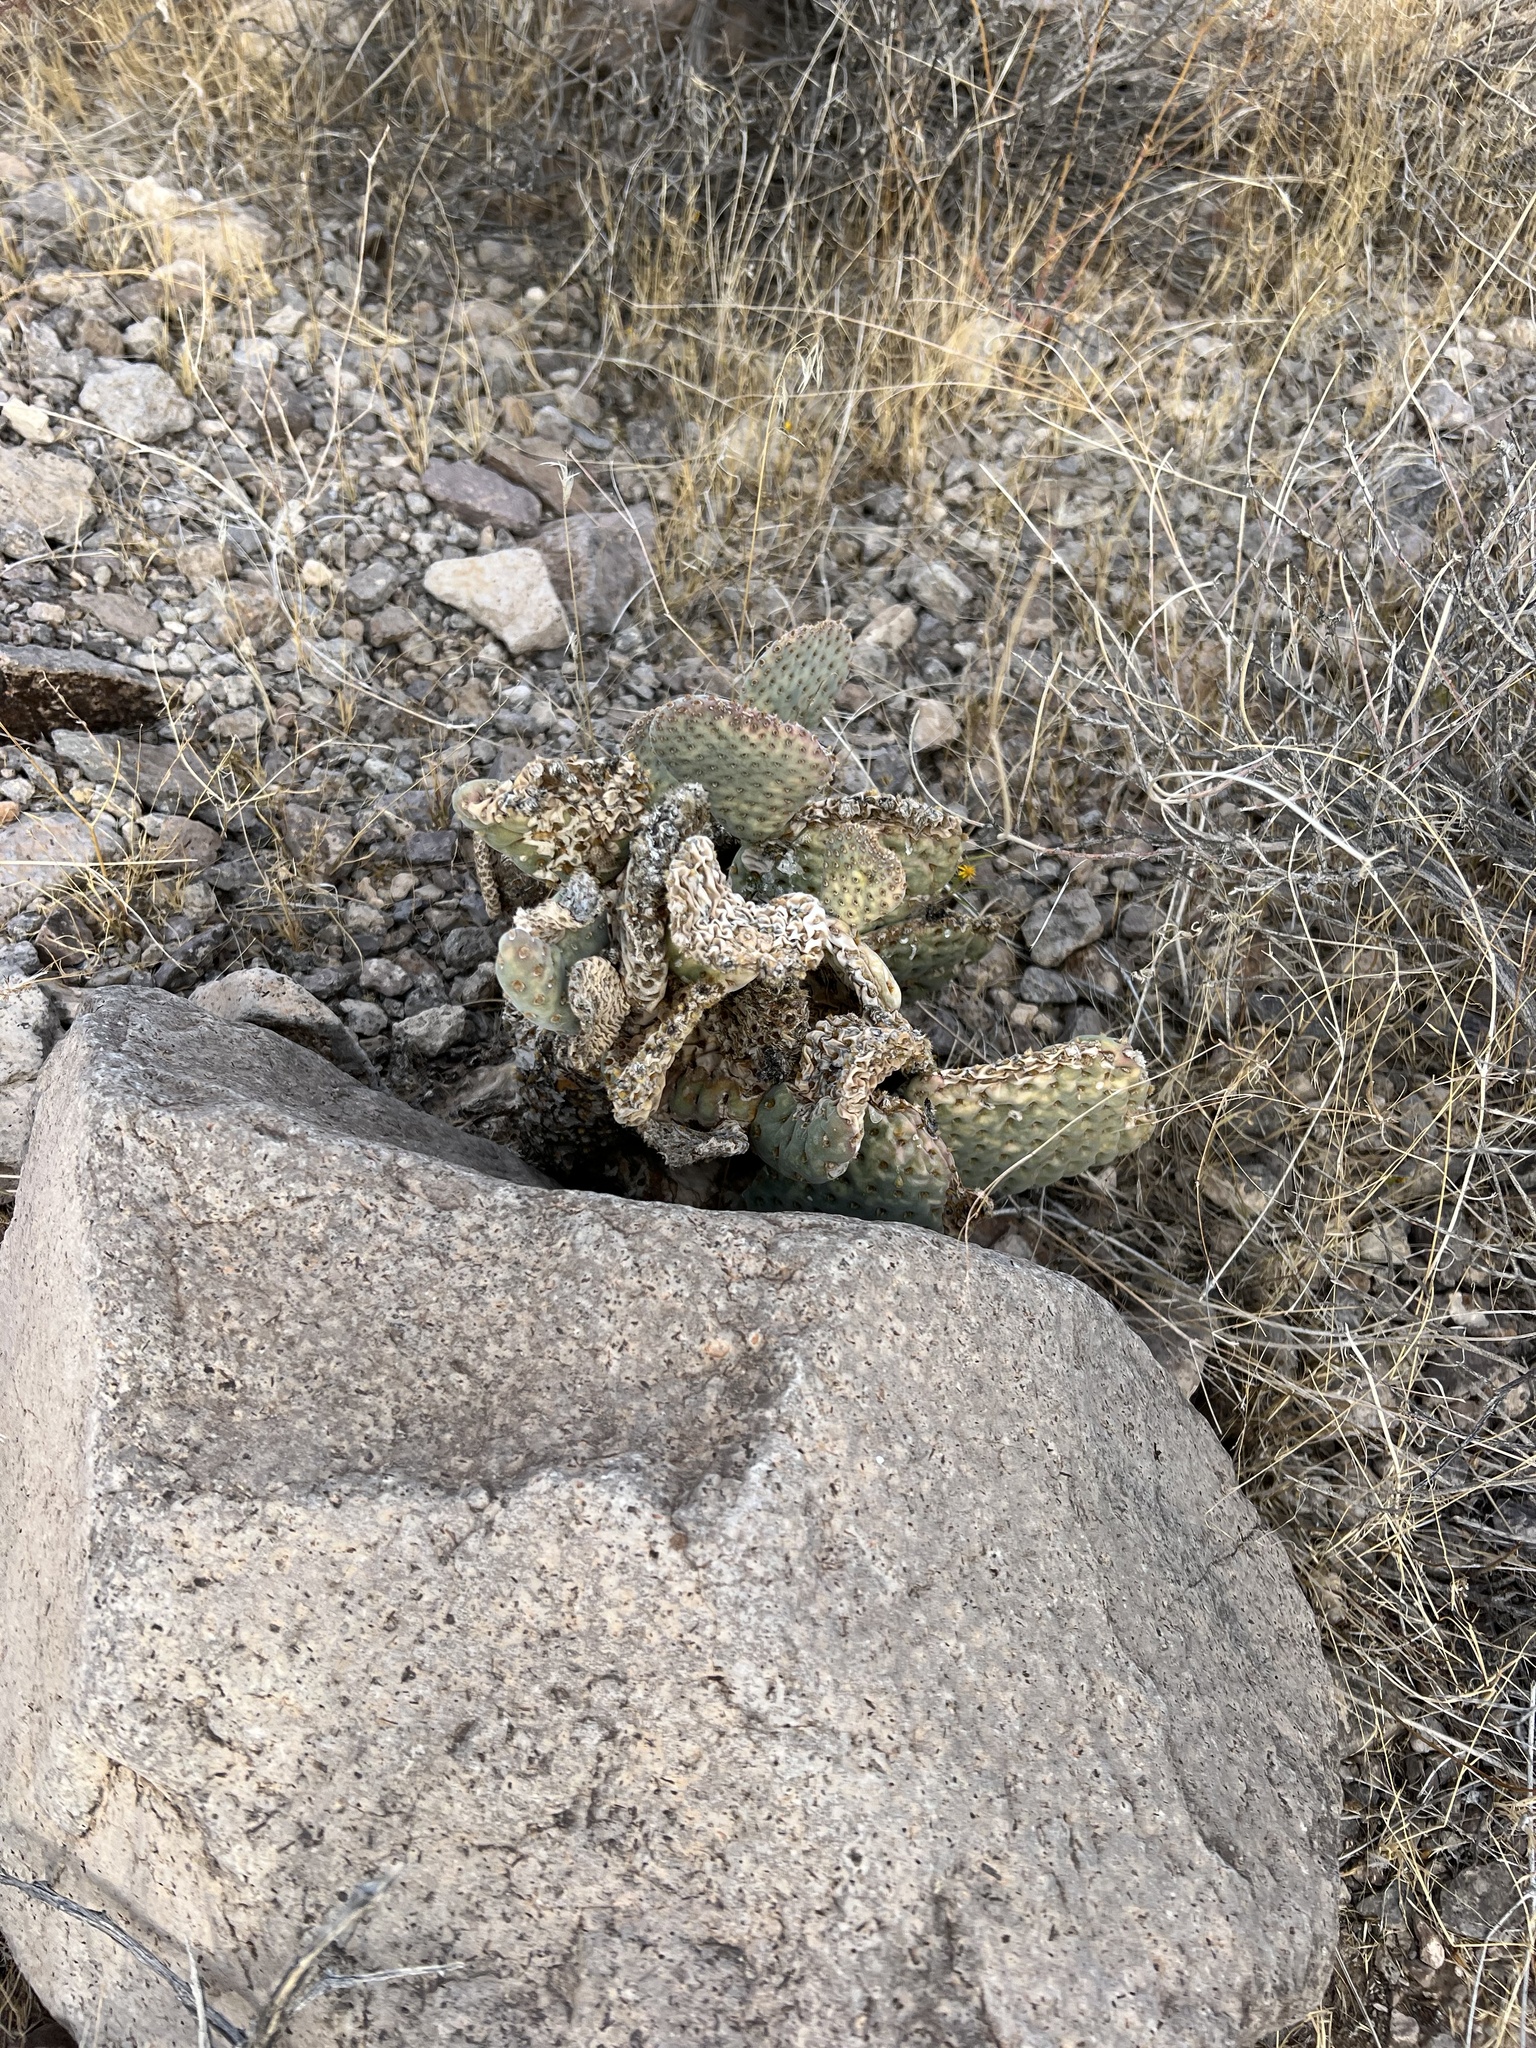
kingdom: Plantae
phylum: Tracheophyta
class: Magnoliopsida
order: Caryophyllales
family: Cactaceae
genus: Opuntia
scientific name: Opuntia basilaris
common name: Beavertail prickly-pear
